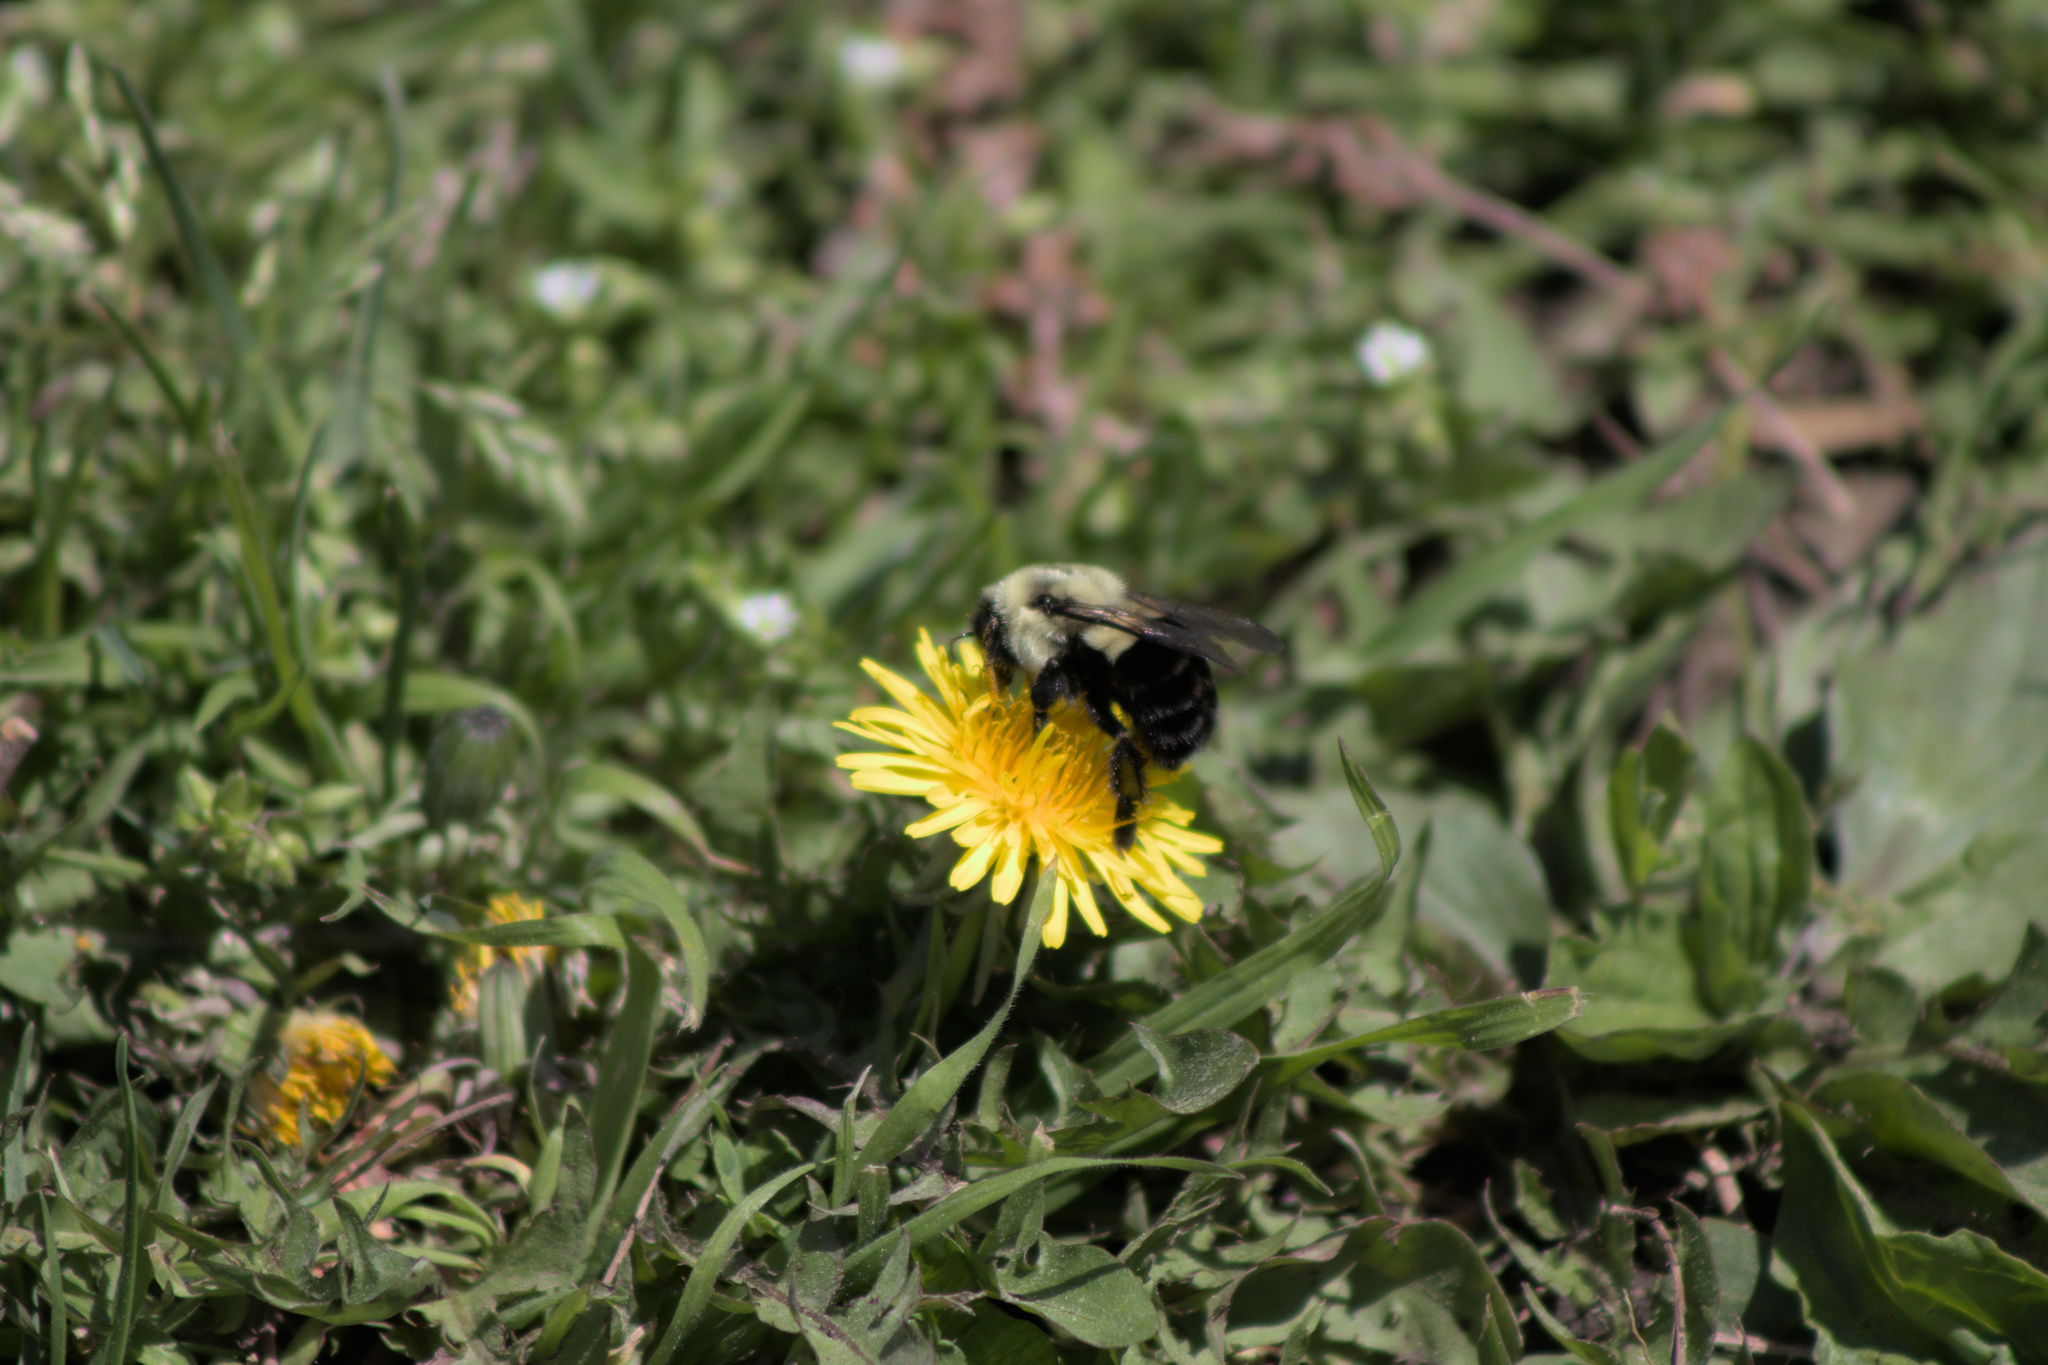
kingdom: Animalia
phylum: Arthropoda
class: Insecta
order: Hymenoptera
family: Apidae
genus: Bombus
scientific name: Bombus impatiens
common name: Common eastern bumble bee
